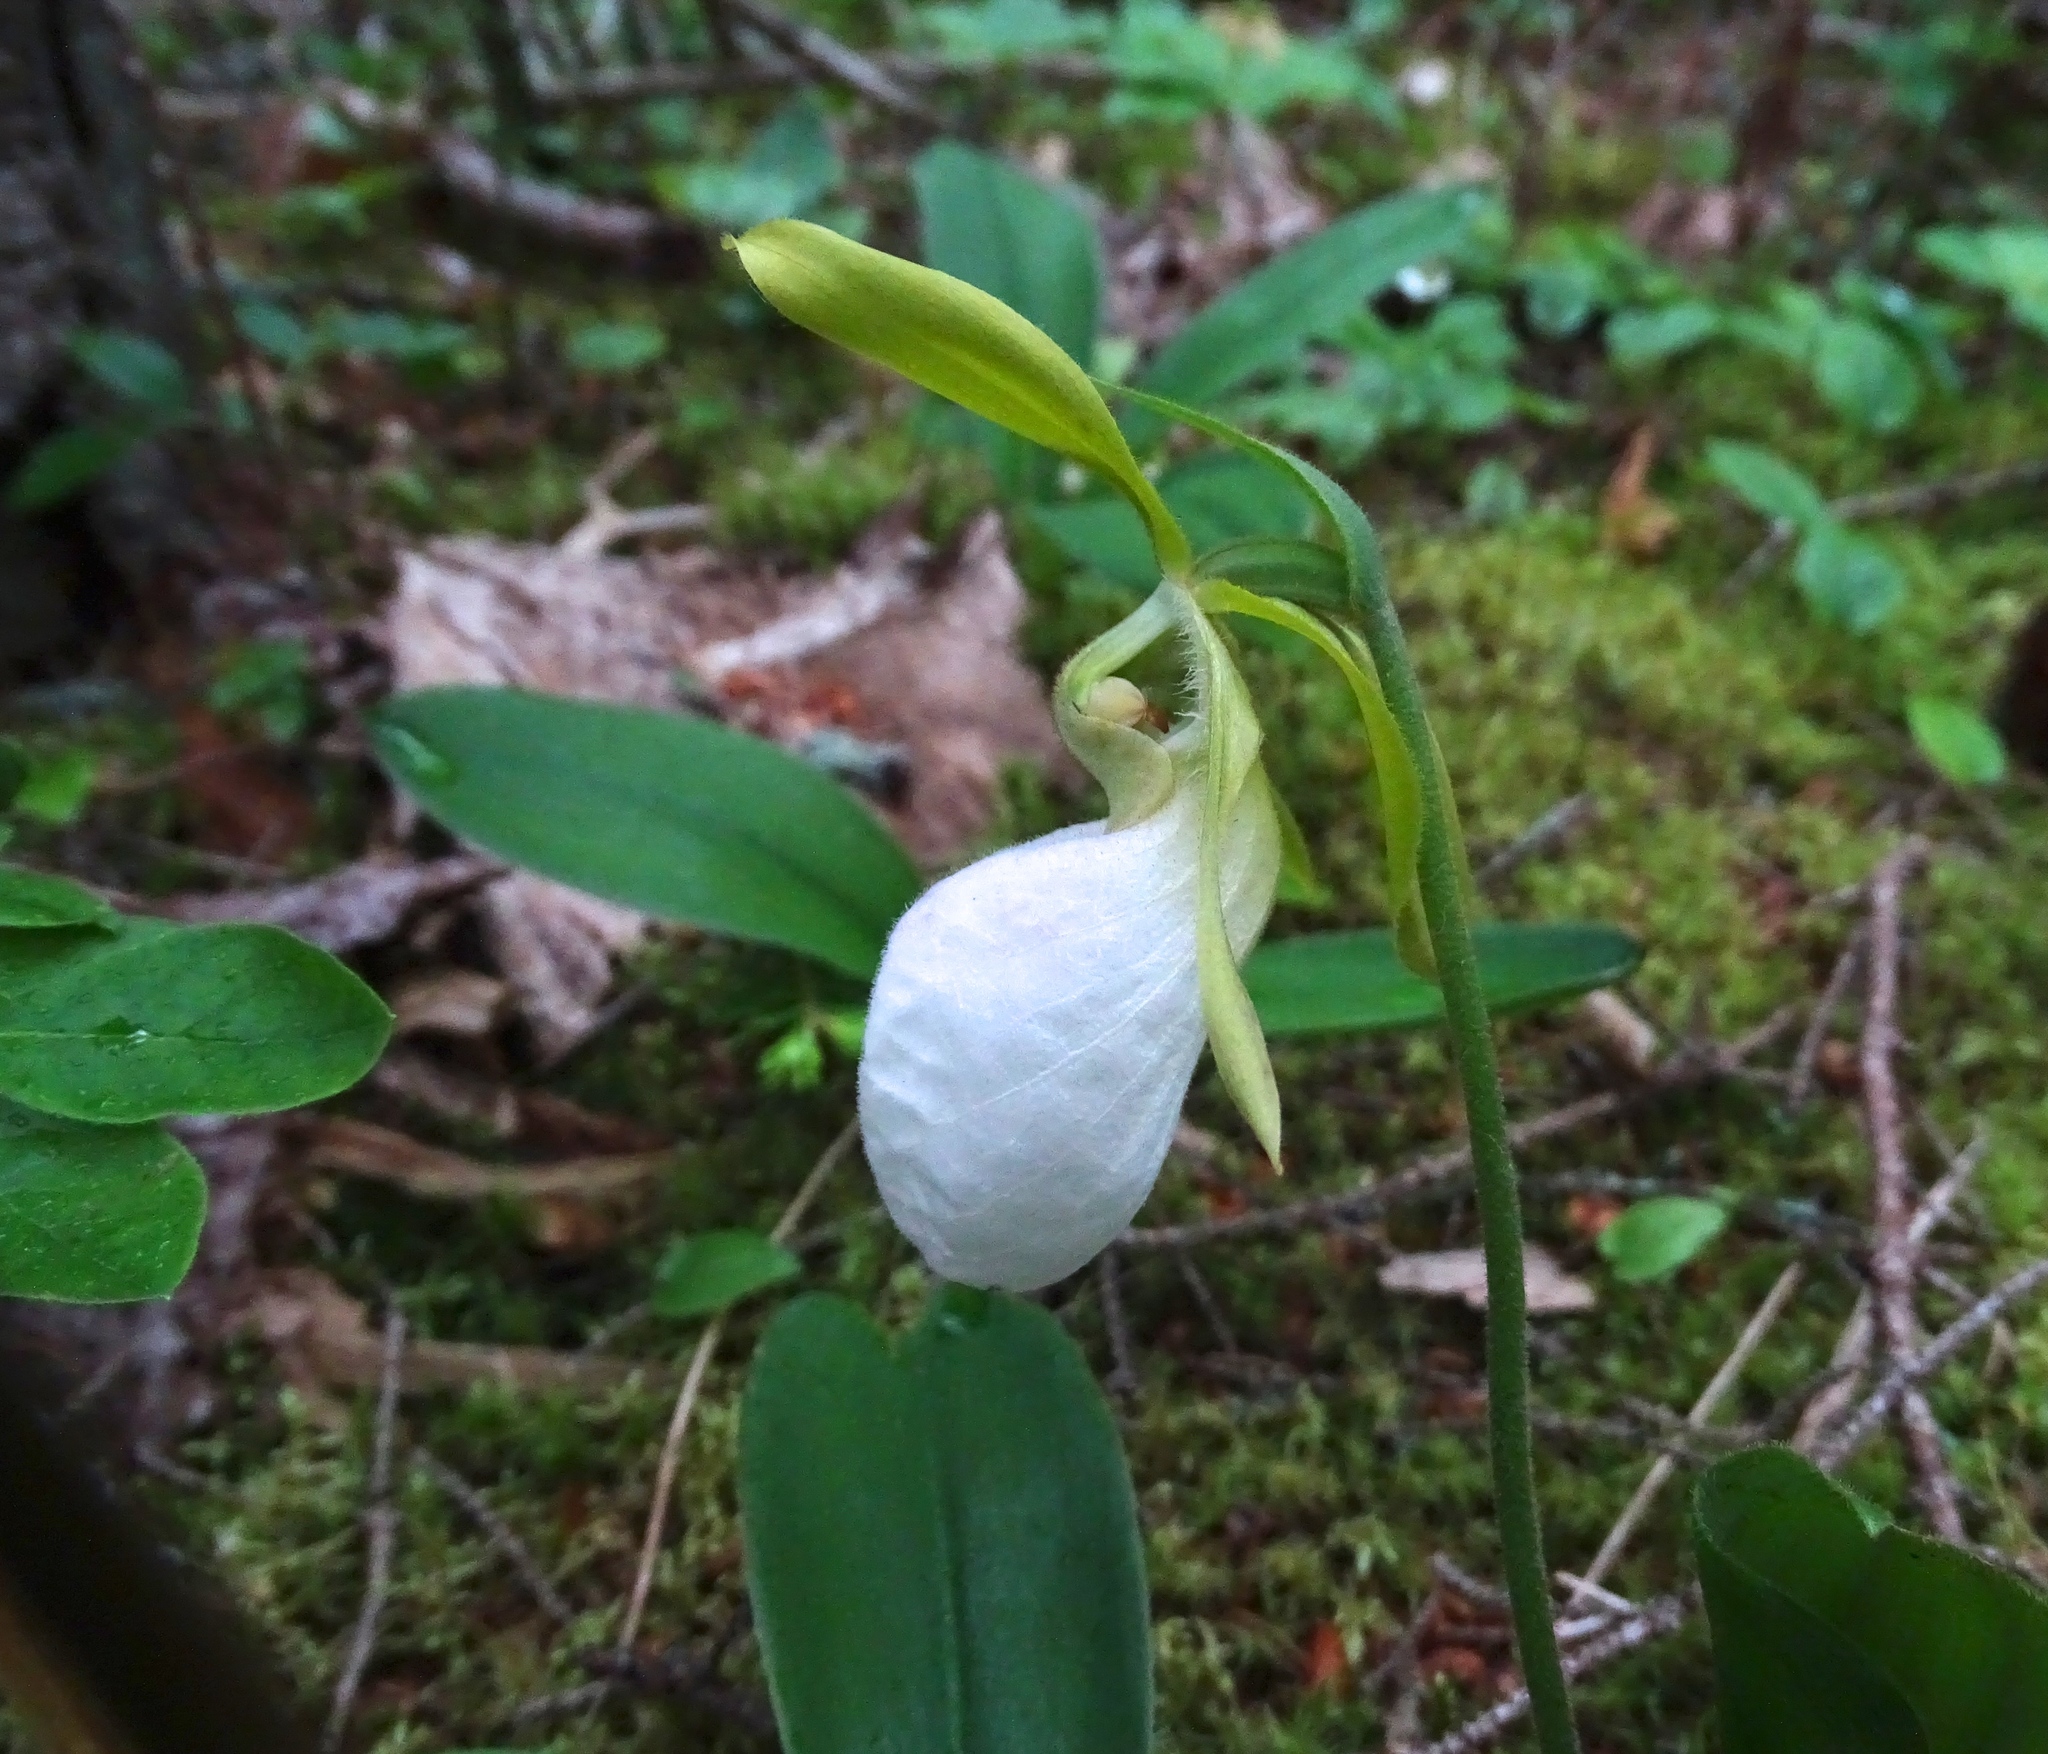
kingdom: Plantae
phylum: Tracheophyta
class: Liliopsida
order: Asparagales
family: Orchidaceae
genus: Cypripedium
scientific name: Cypripedium acaule
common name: Pink lady's-slipper
